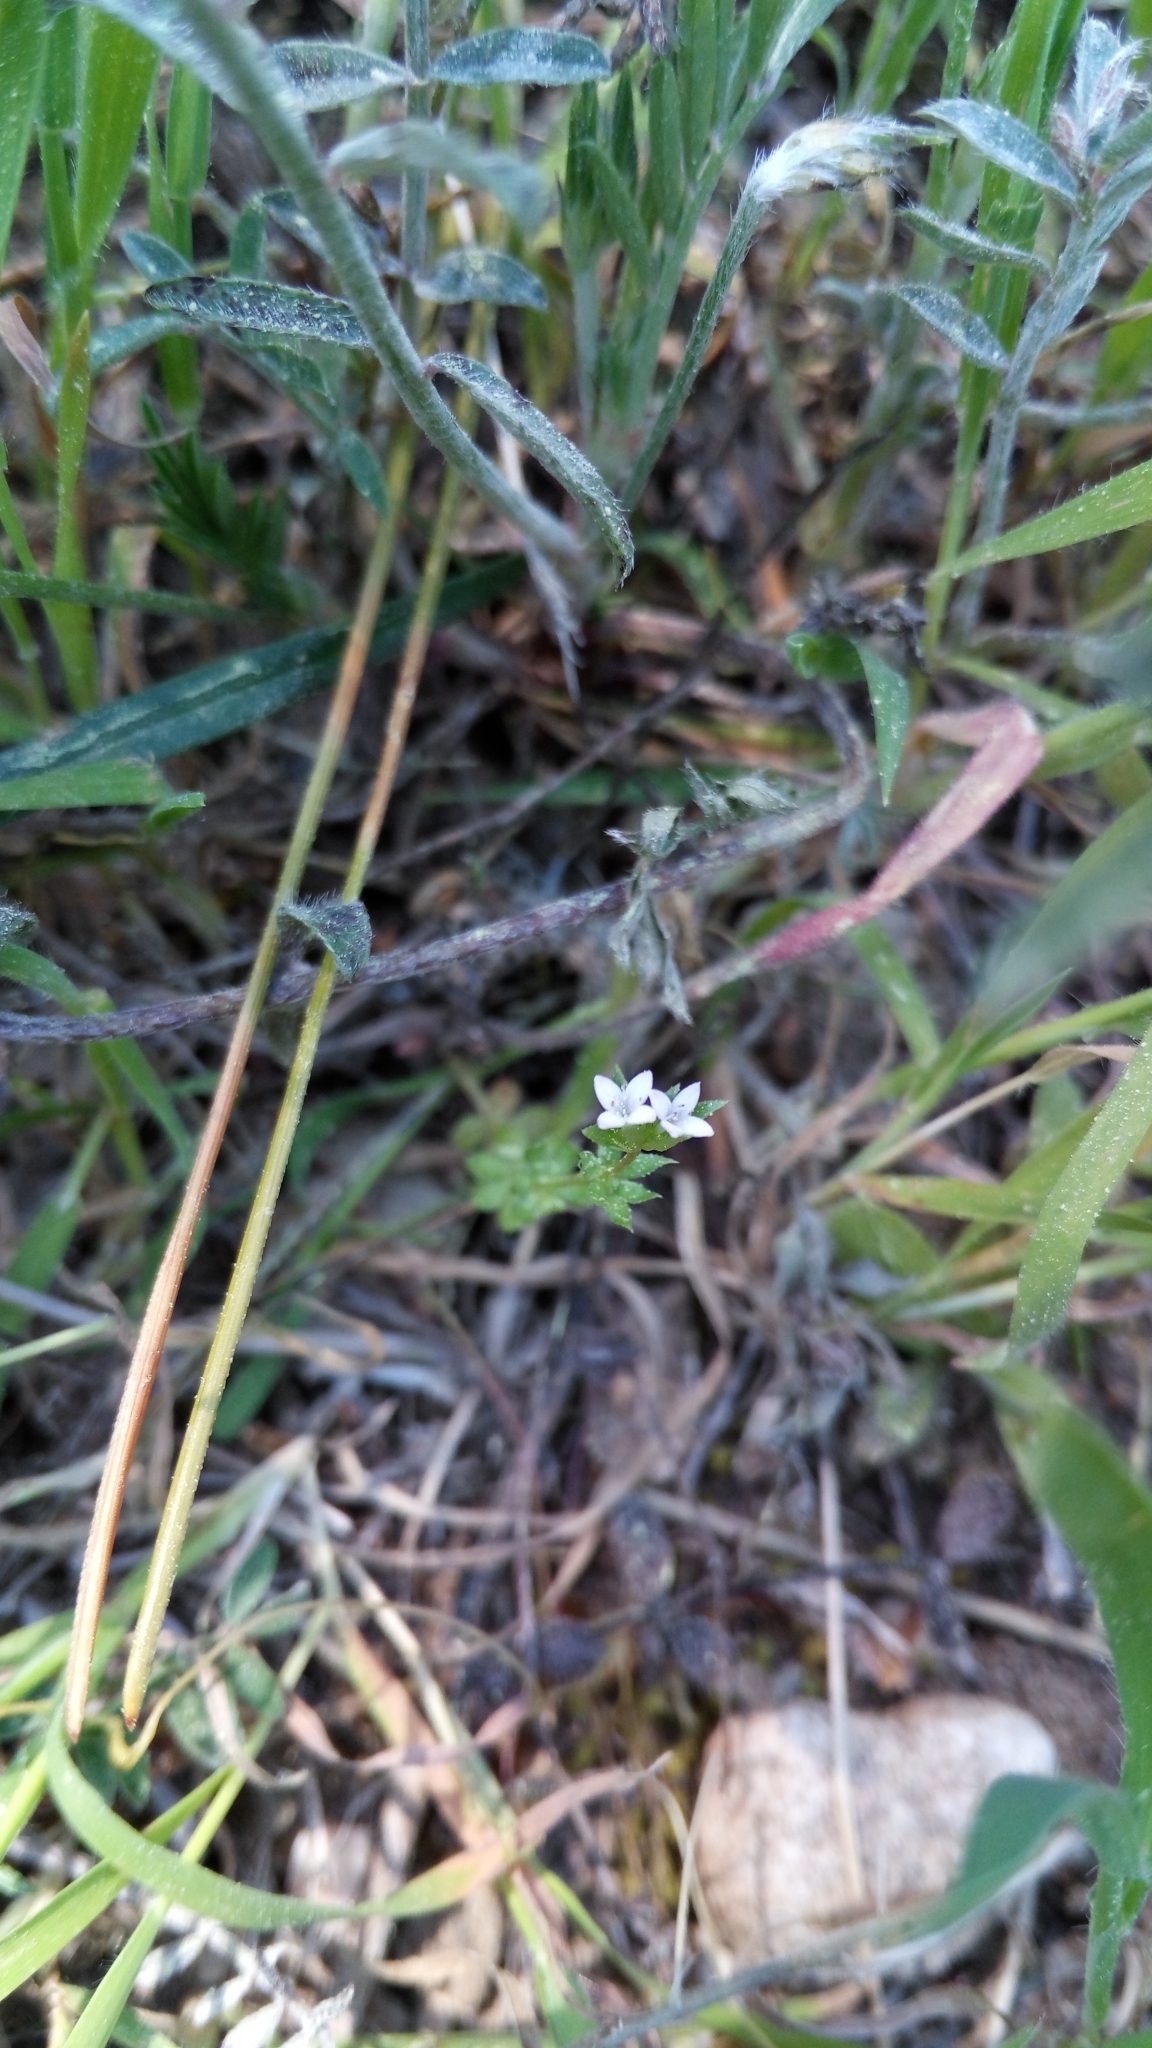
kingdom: Plantae
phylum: Tracheophyta
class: Magnoliopsida
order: Gentianales
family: Rubiaceae
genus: Sherardia
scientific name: Sherardia arvensis
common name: Field madder
